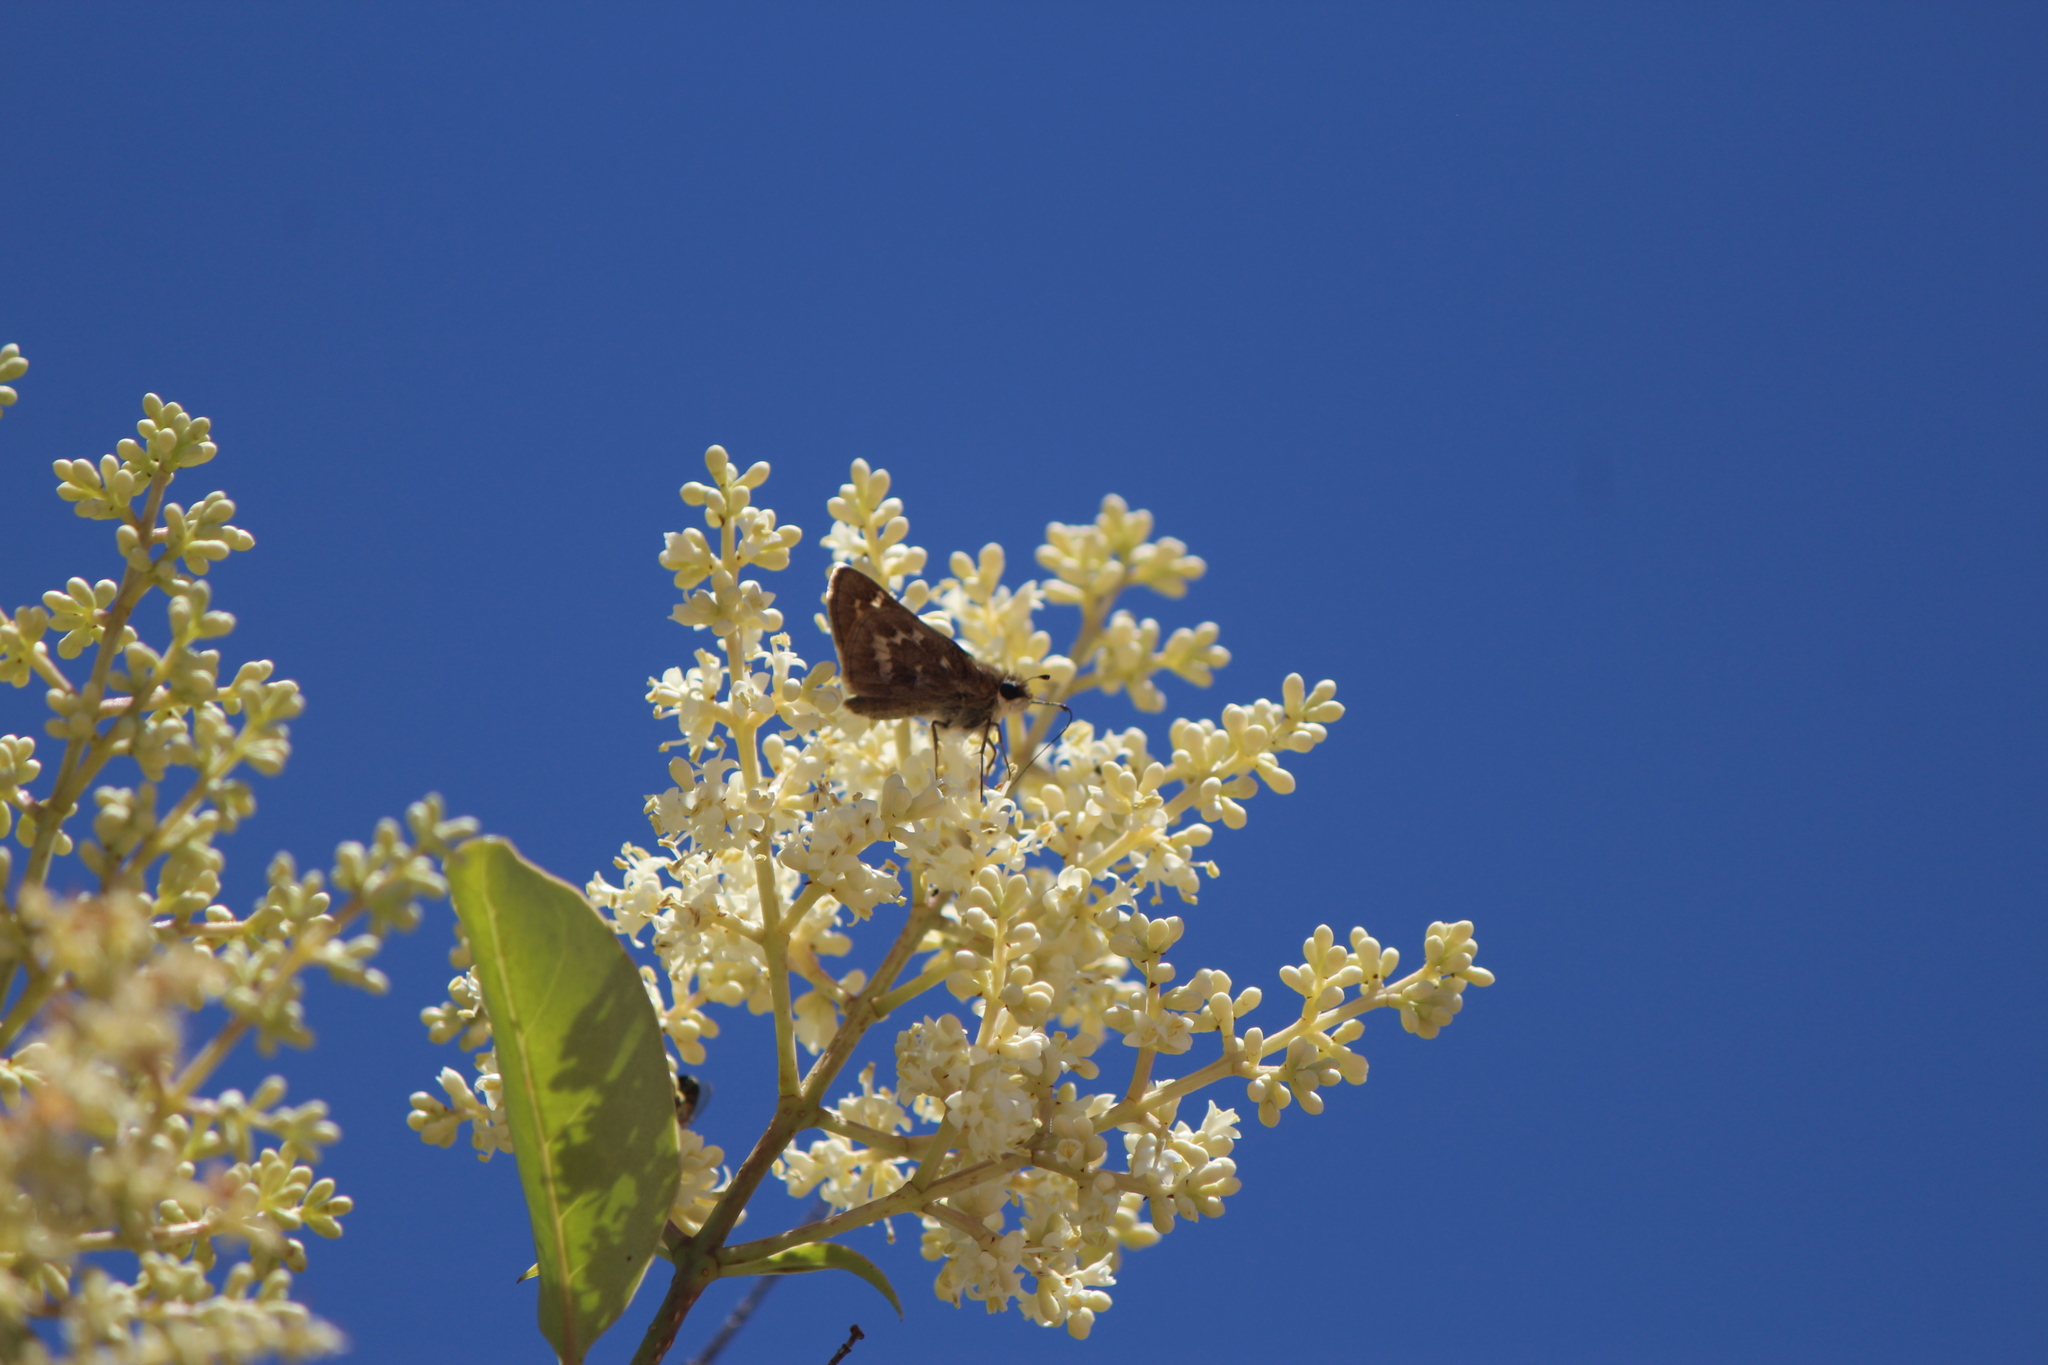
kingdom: Animalia
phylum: Arthropoda
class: Insecta
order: Lepidoptera
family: Hesperiidae
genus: Atalopedes
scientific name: Atalopedes
